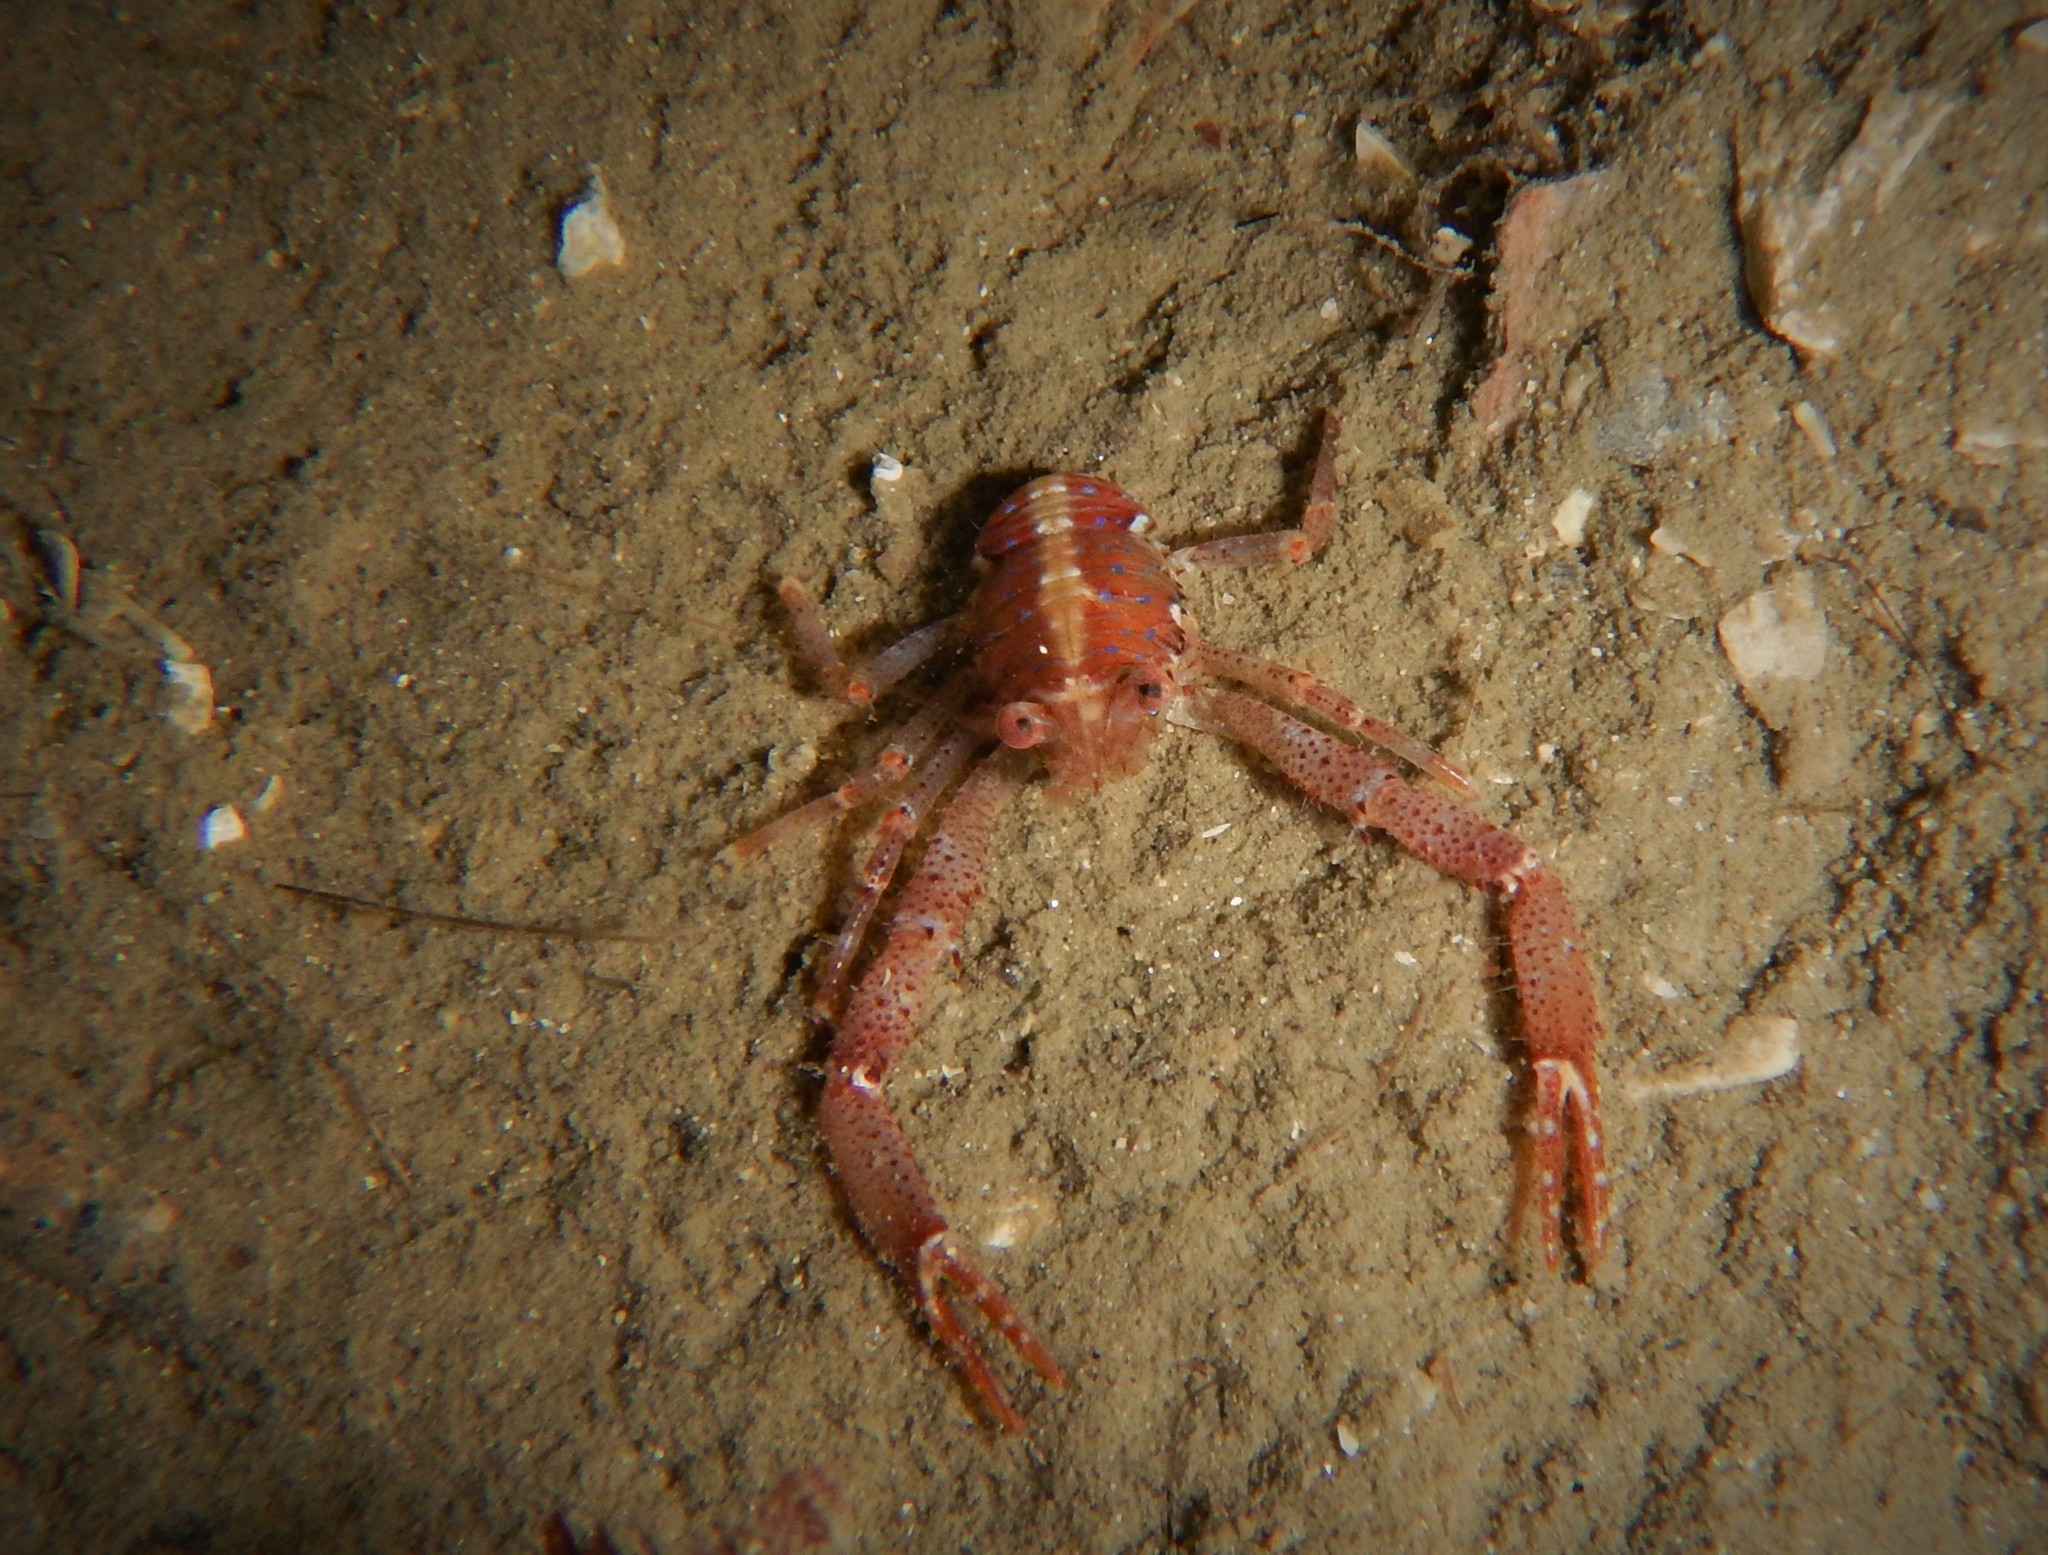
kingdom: Animalia
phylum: Arthropoda
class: Malacostraca
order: Decapoda
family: Galatheidae
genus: Galathea
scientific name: Galathea intermedia
